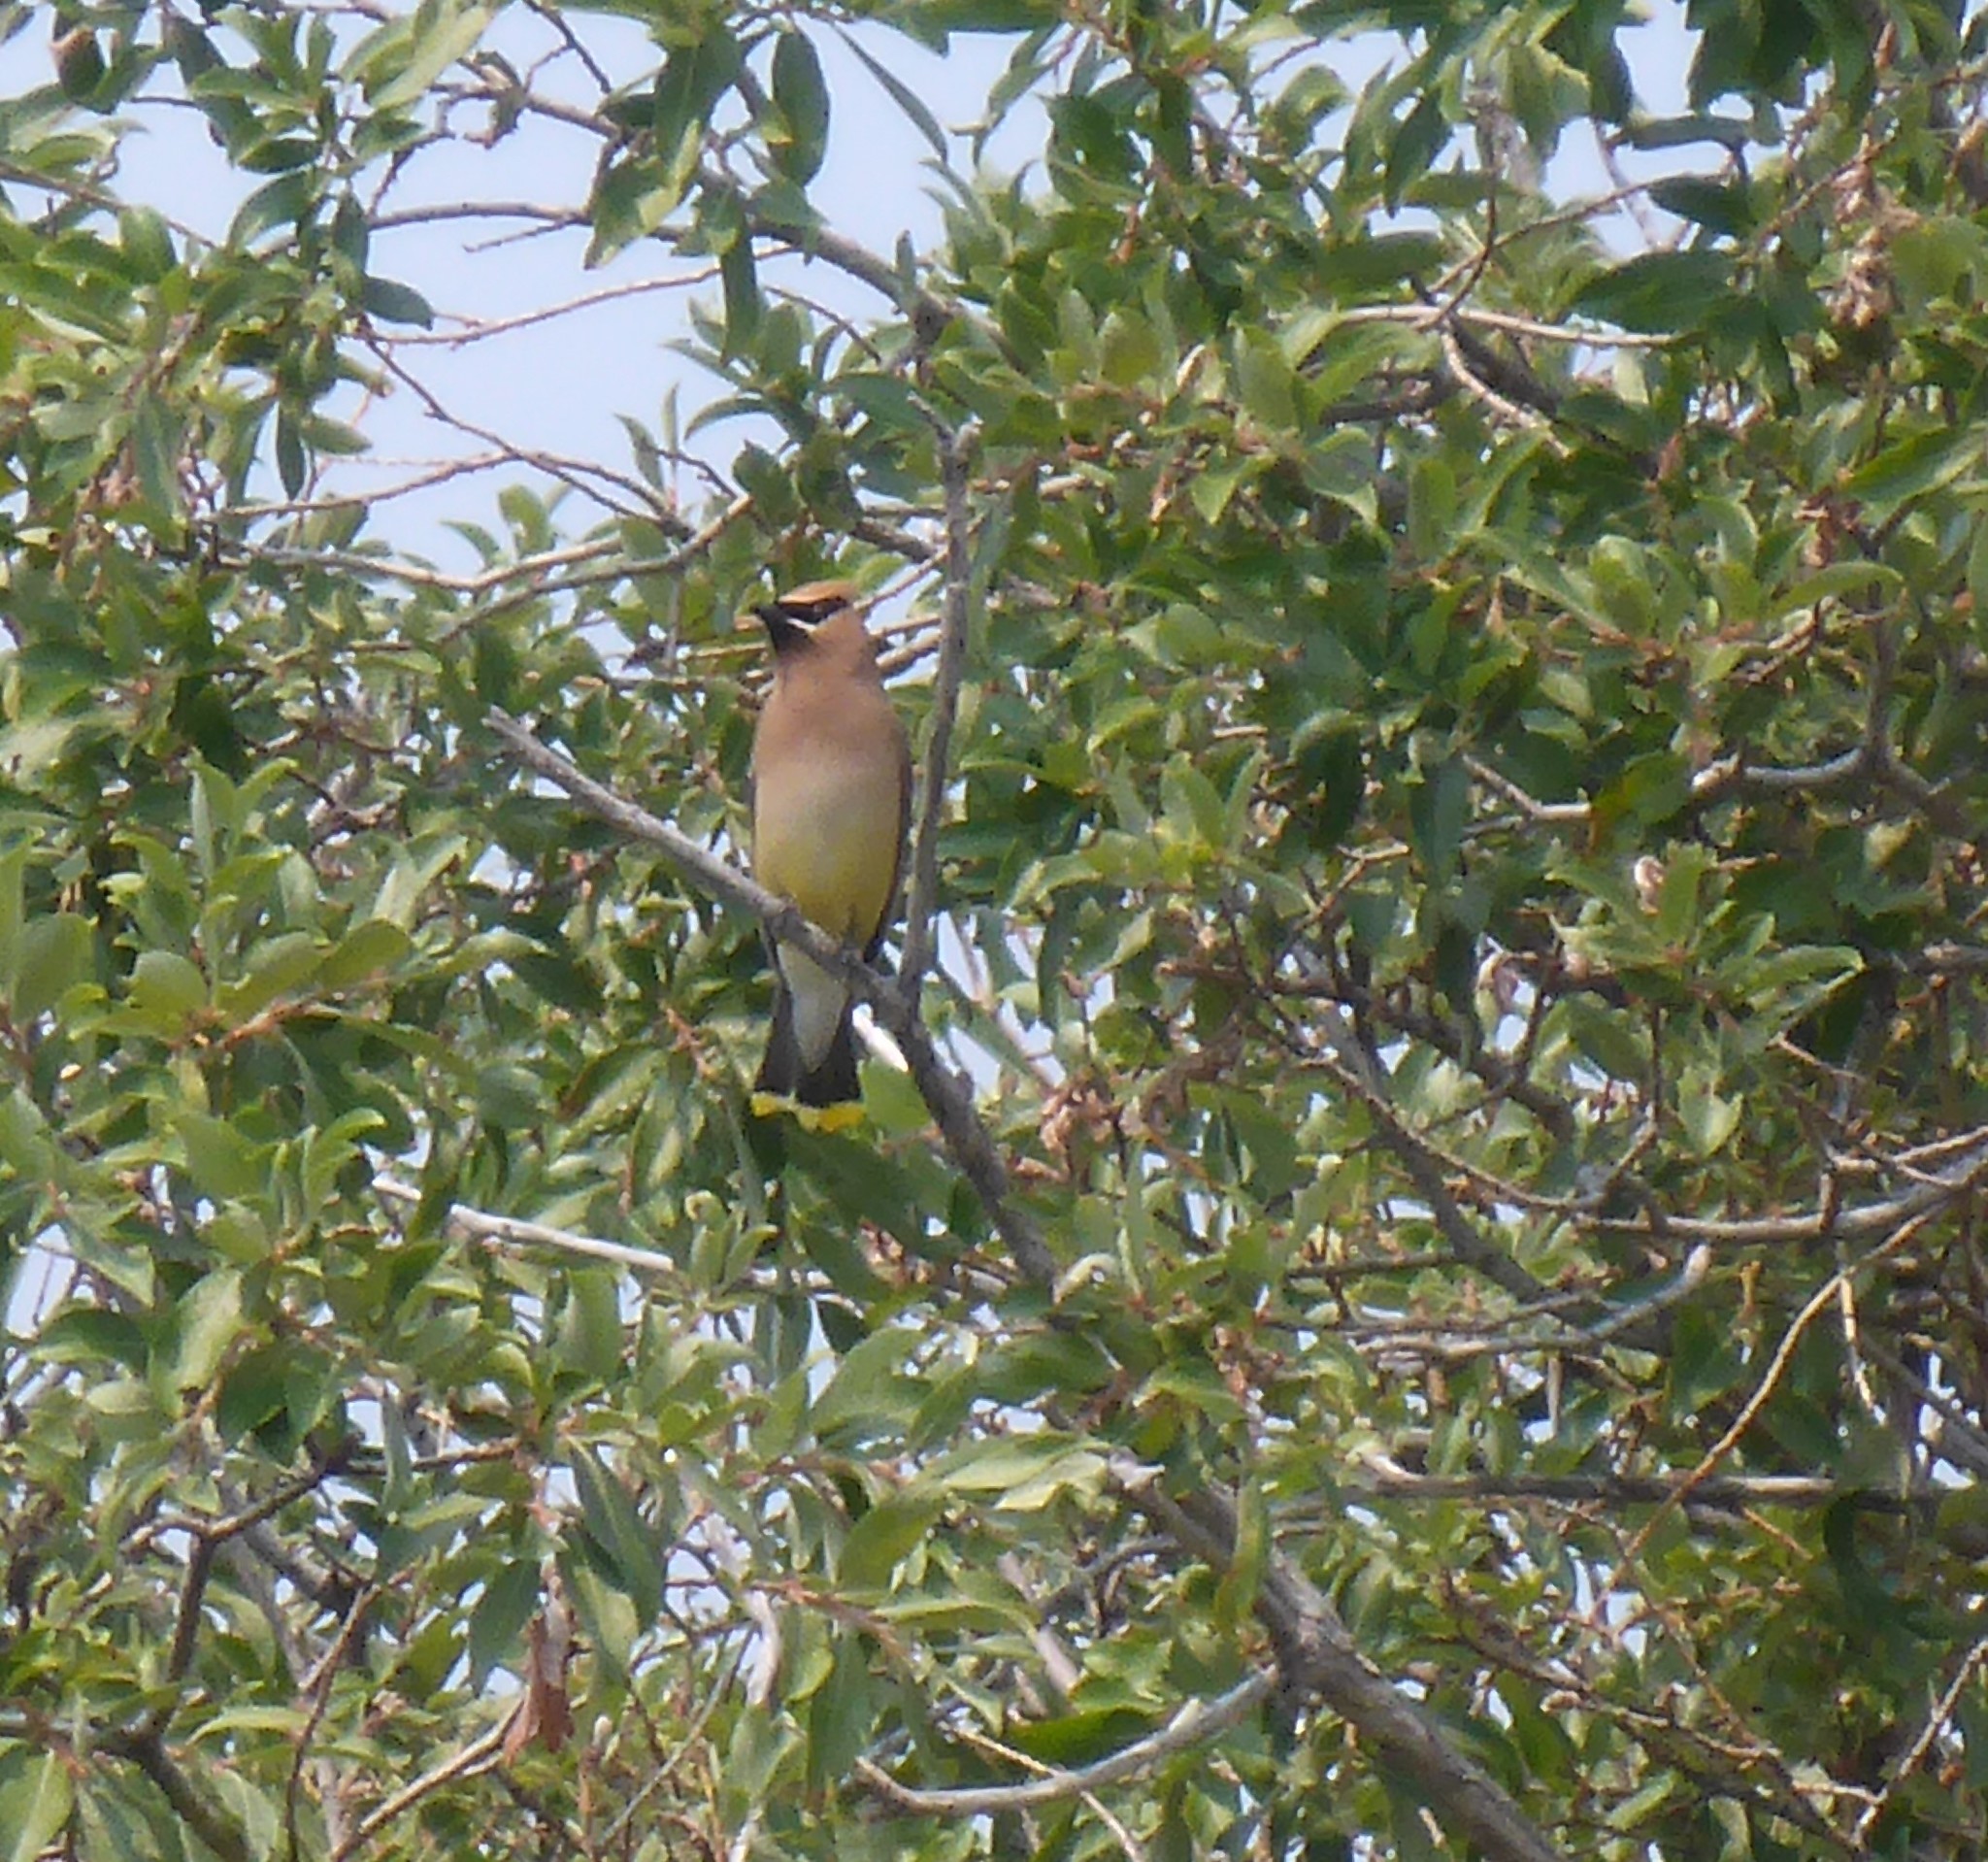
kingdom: Animalia
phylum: Chordata
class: Aves
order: Passeriformes
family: Bombycillidae
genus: Bombycilla
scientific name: Bombycilla cedrorum
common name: Cedar waxwing
